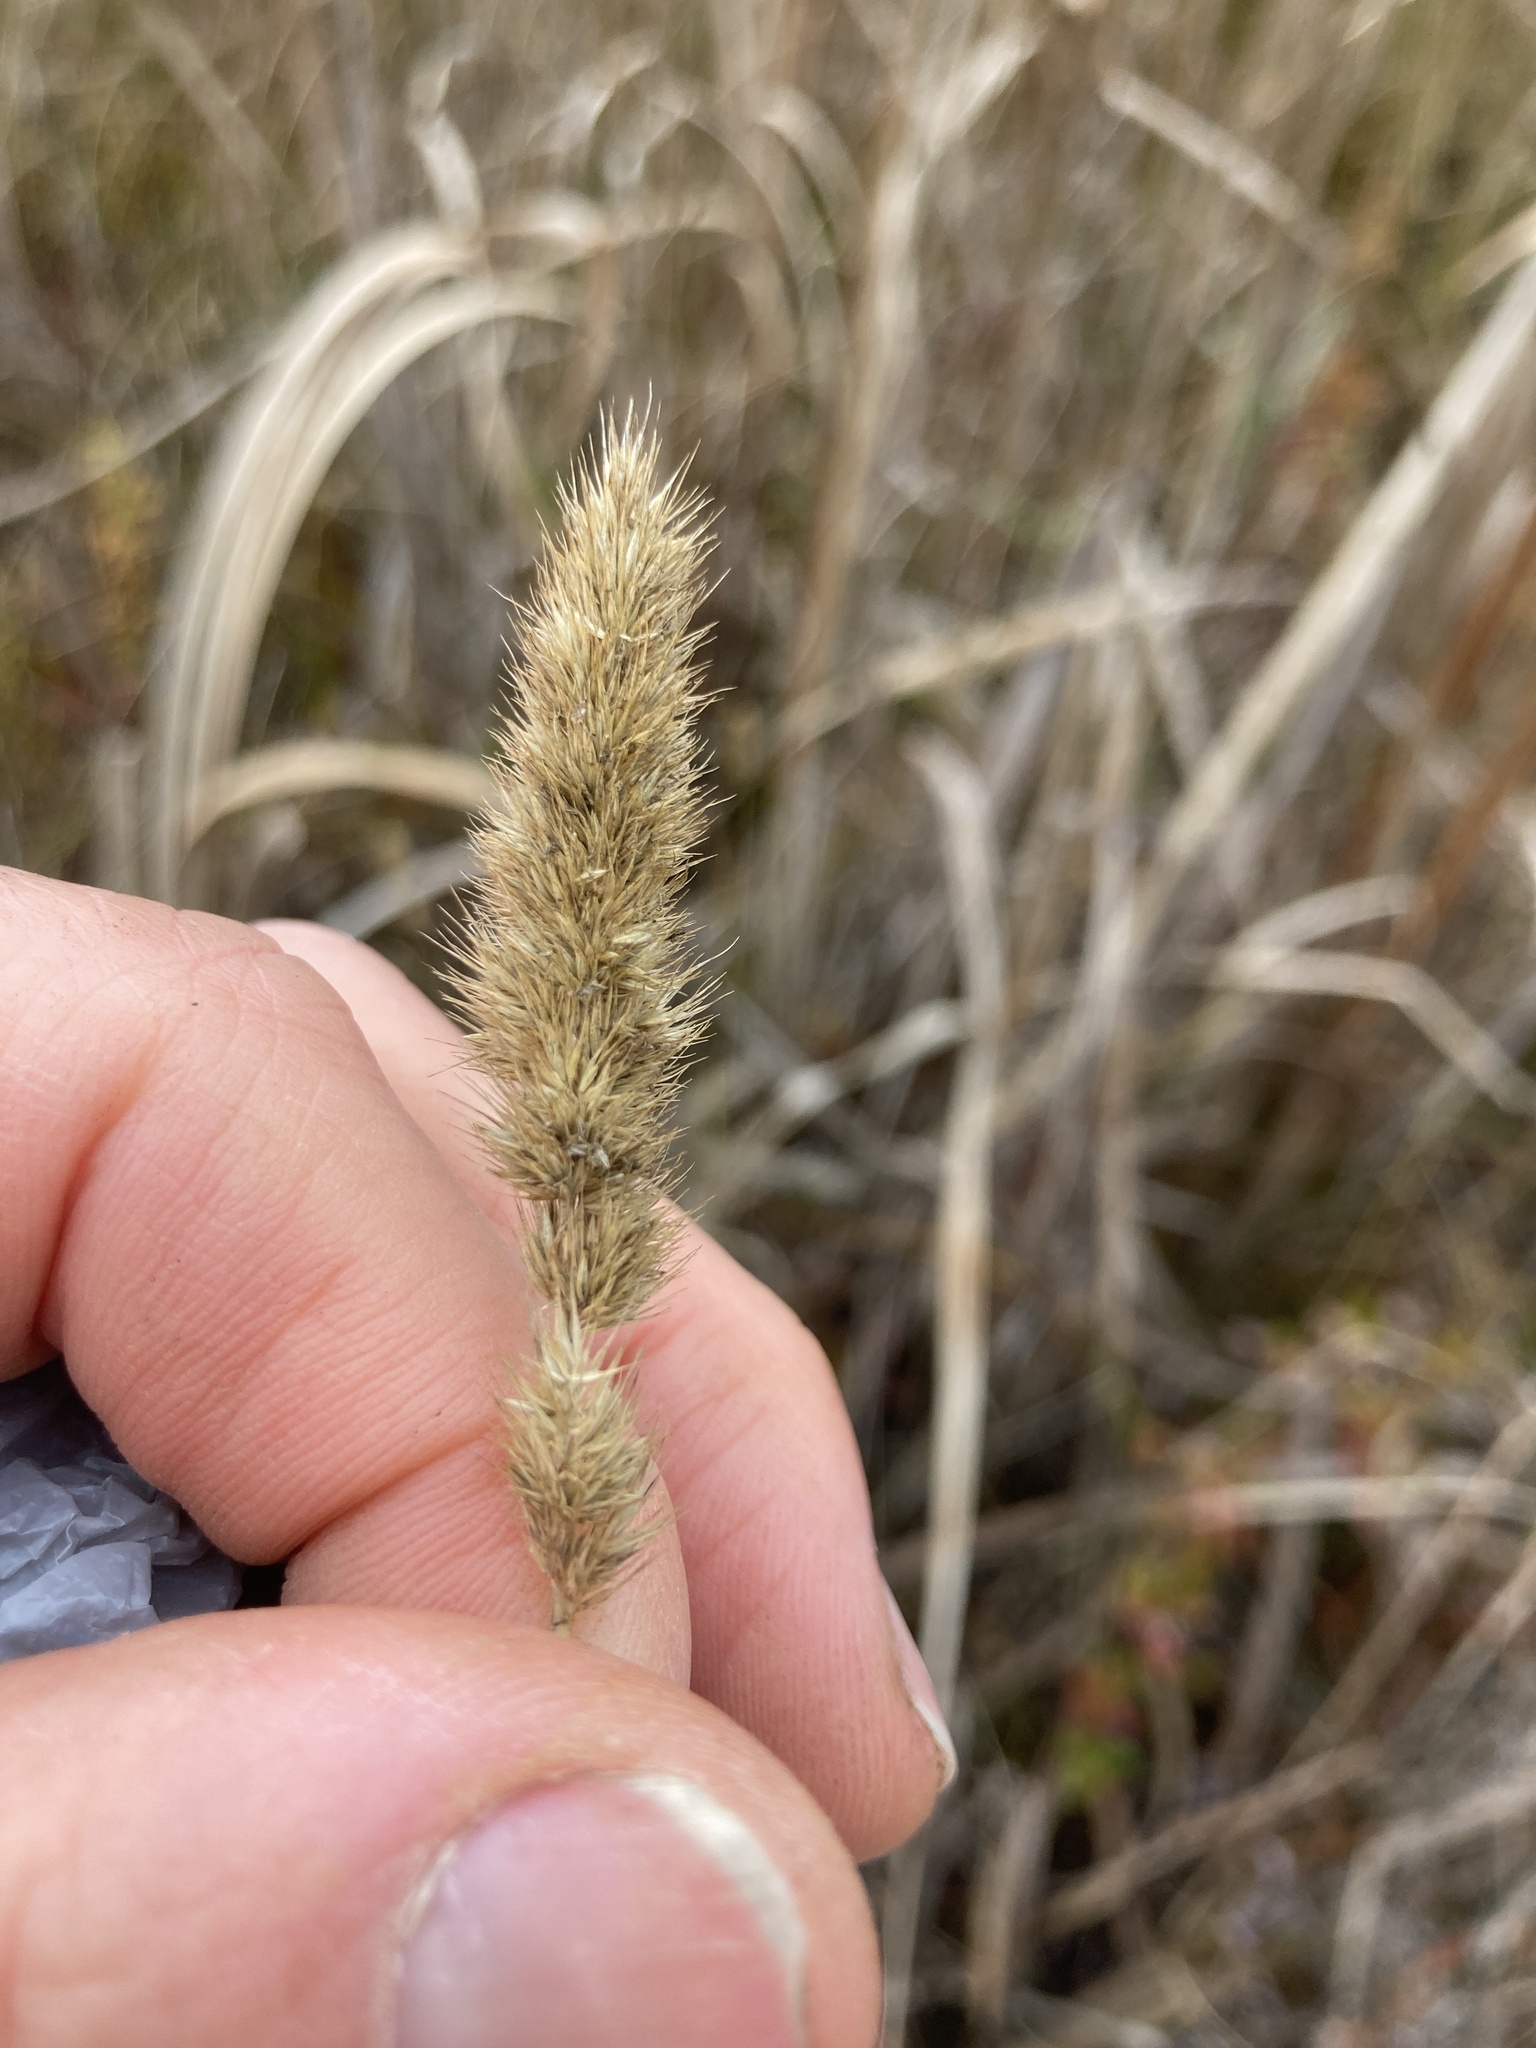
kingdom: Plantae
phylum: Tracheophyta
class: Liliopsida
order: Poales
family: Poaceae
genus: Muhlenbergia
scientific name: Muhlenbergia glomerata
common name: Bog muhly
